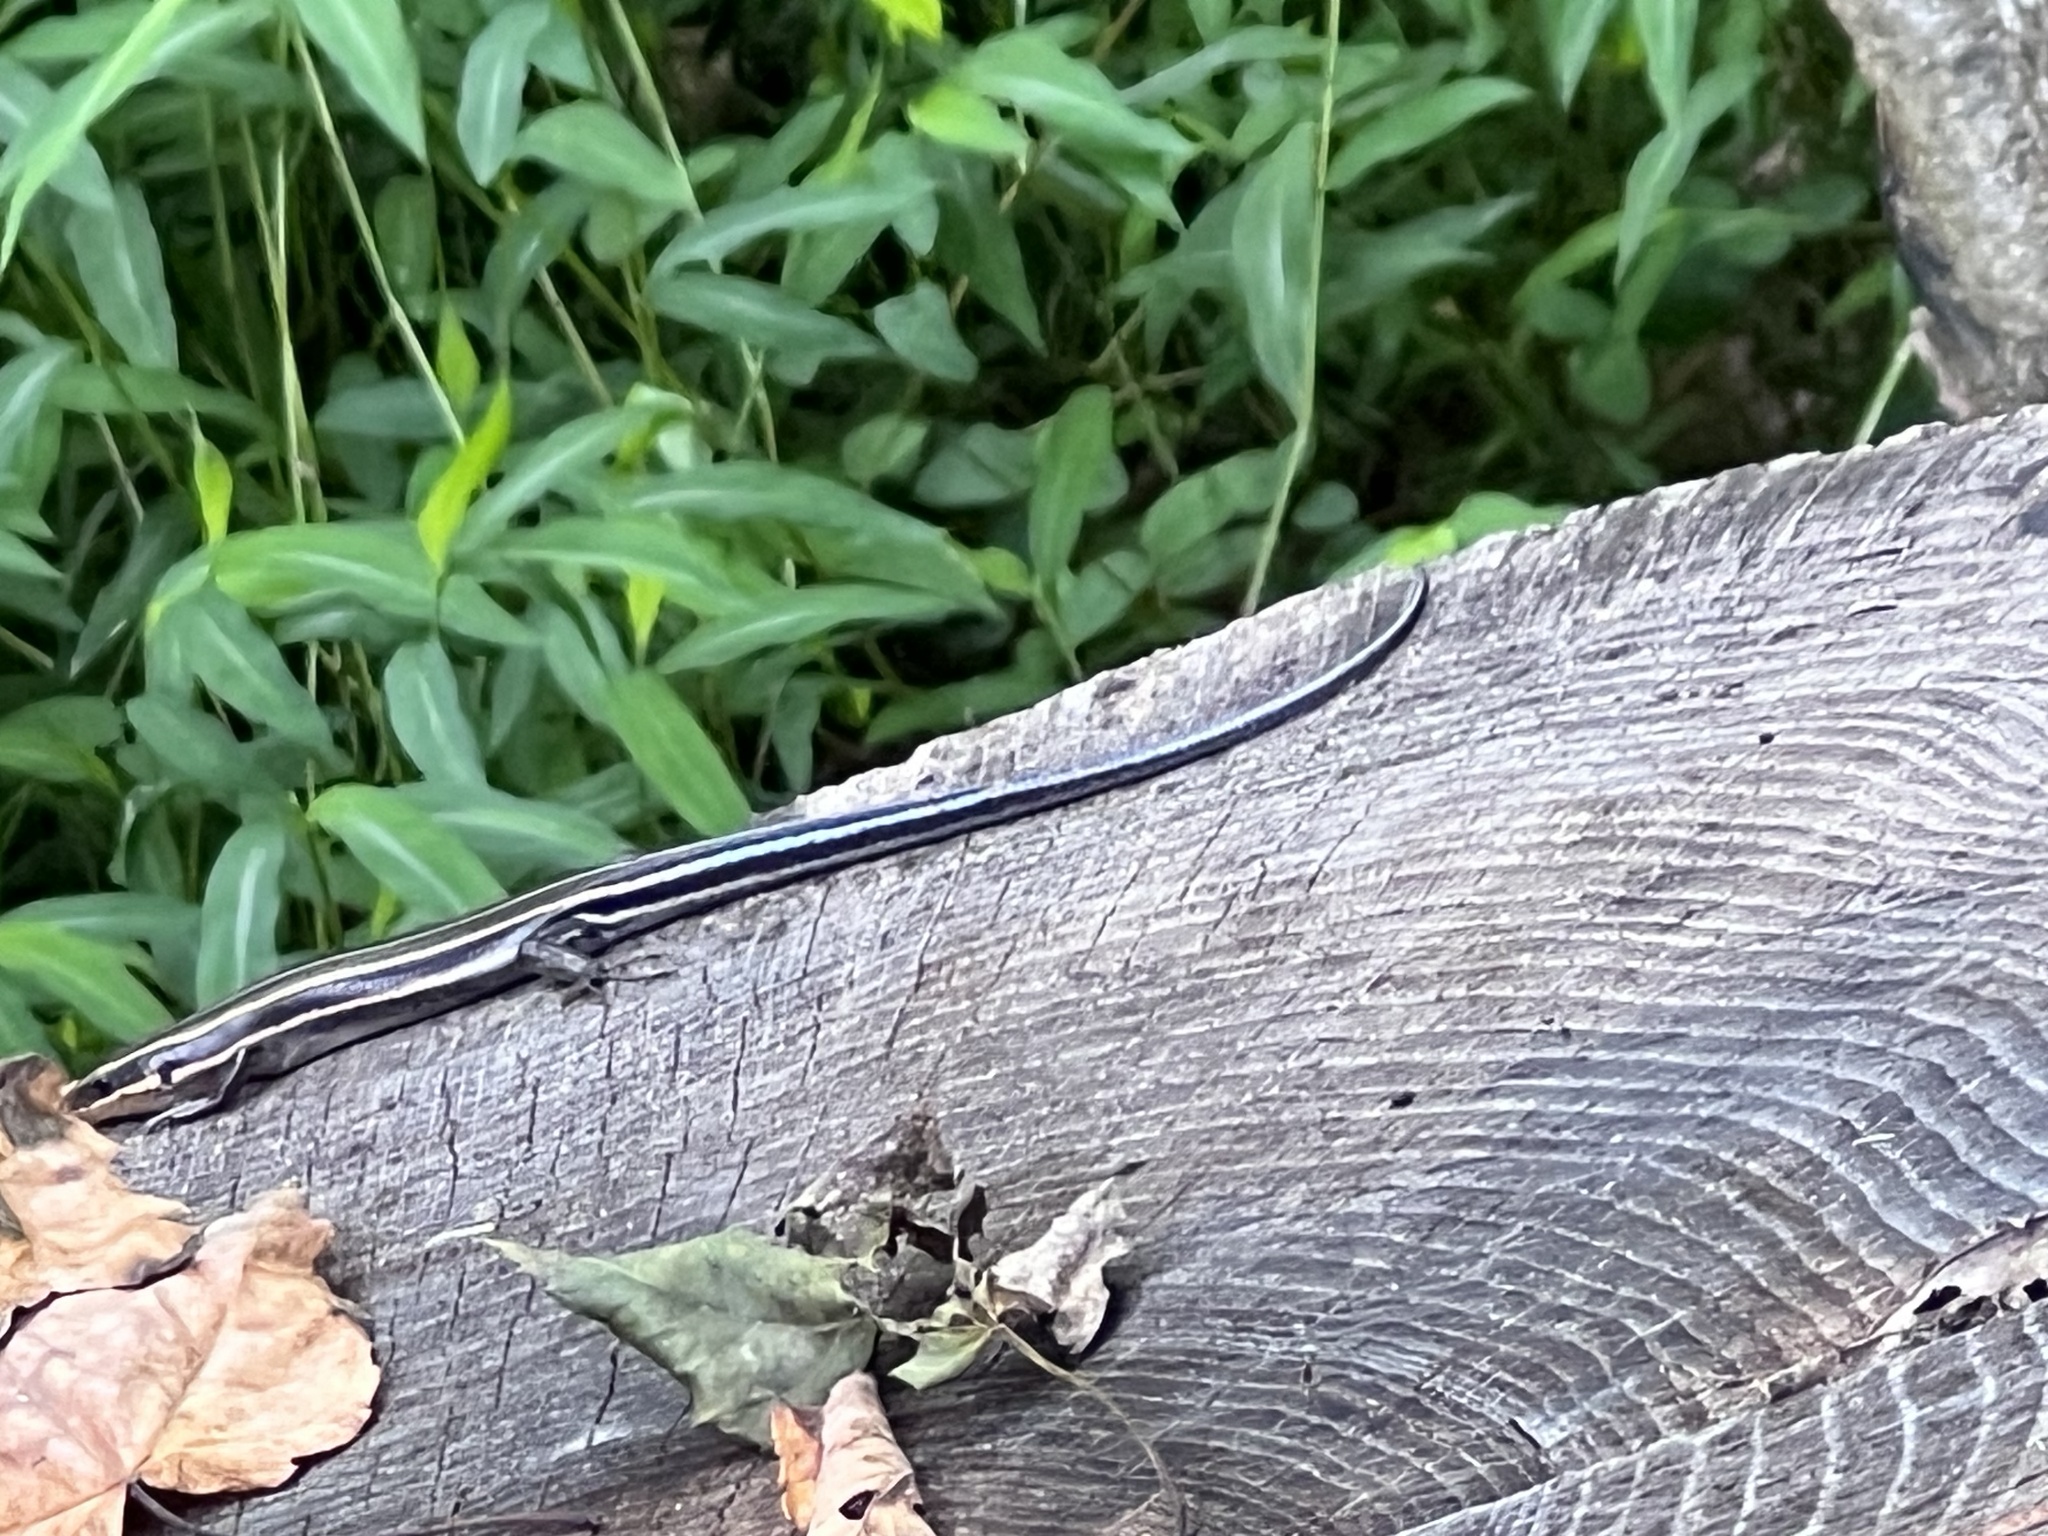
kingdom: Animalia
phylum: Chordata
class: Squamata
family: Scincidae
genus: Plestiodon
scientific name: Plestiodon fasciatus
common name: Five-lined skink
